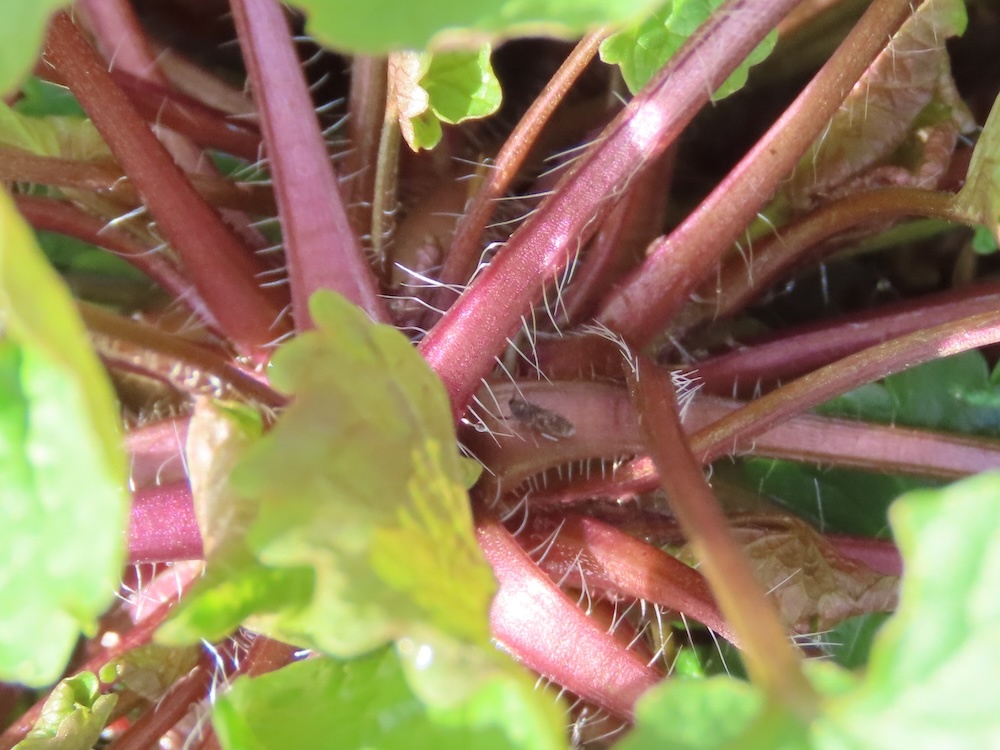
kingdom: Plantae
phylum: Tracheophyta
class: Magnoliopsida
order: Brassicales
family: Brassicaceae
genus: Alliaria
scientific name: Alliaria petiolata
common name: Garlic mustard
